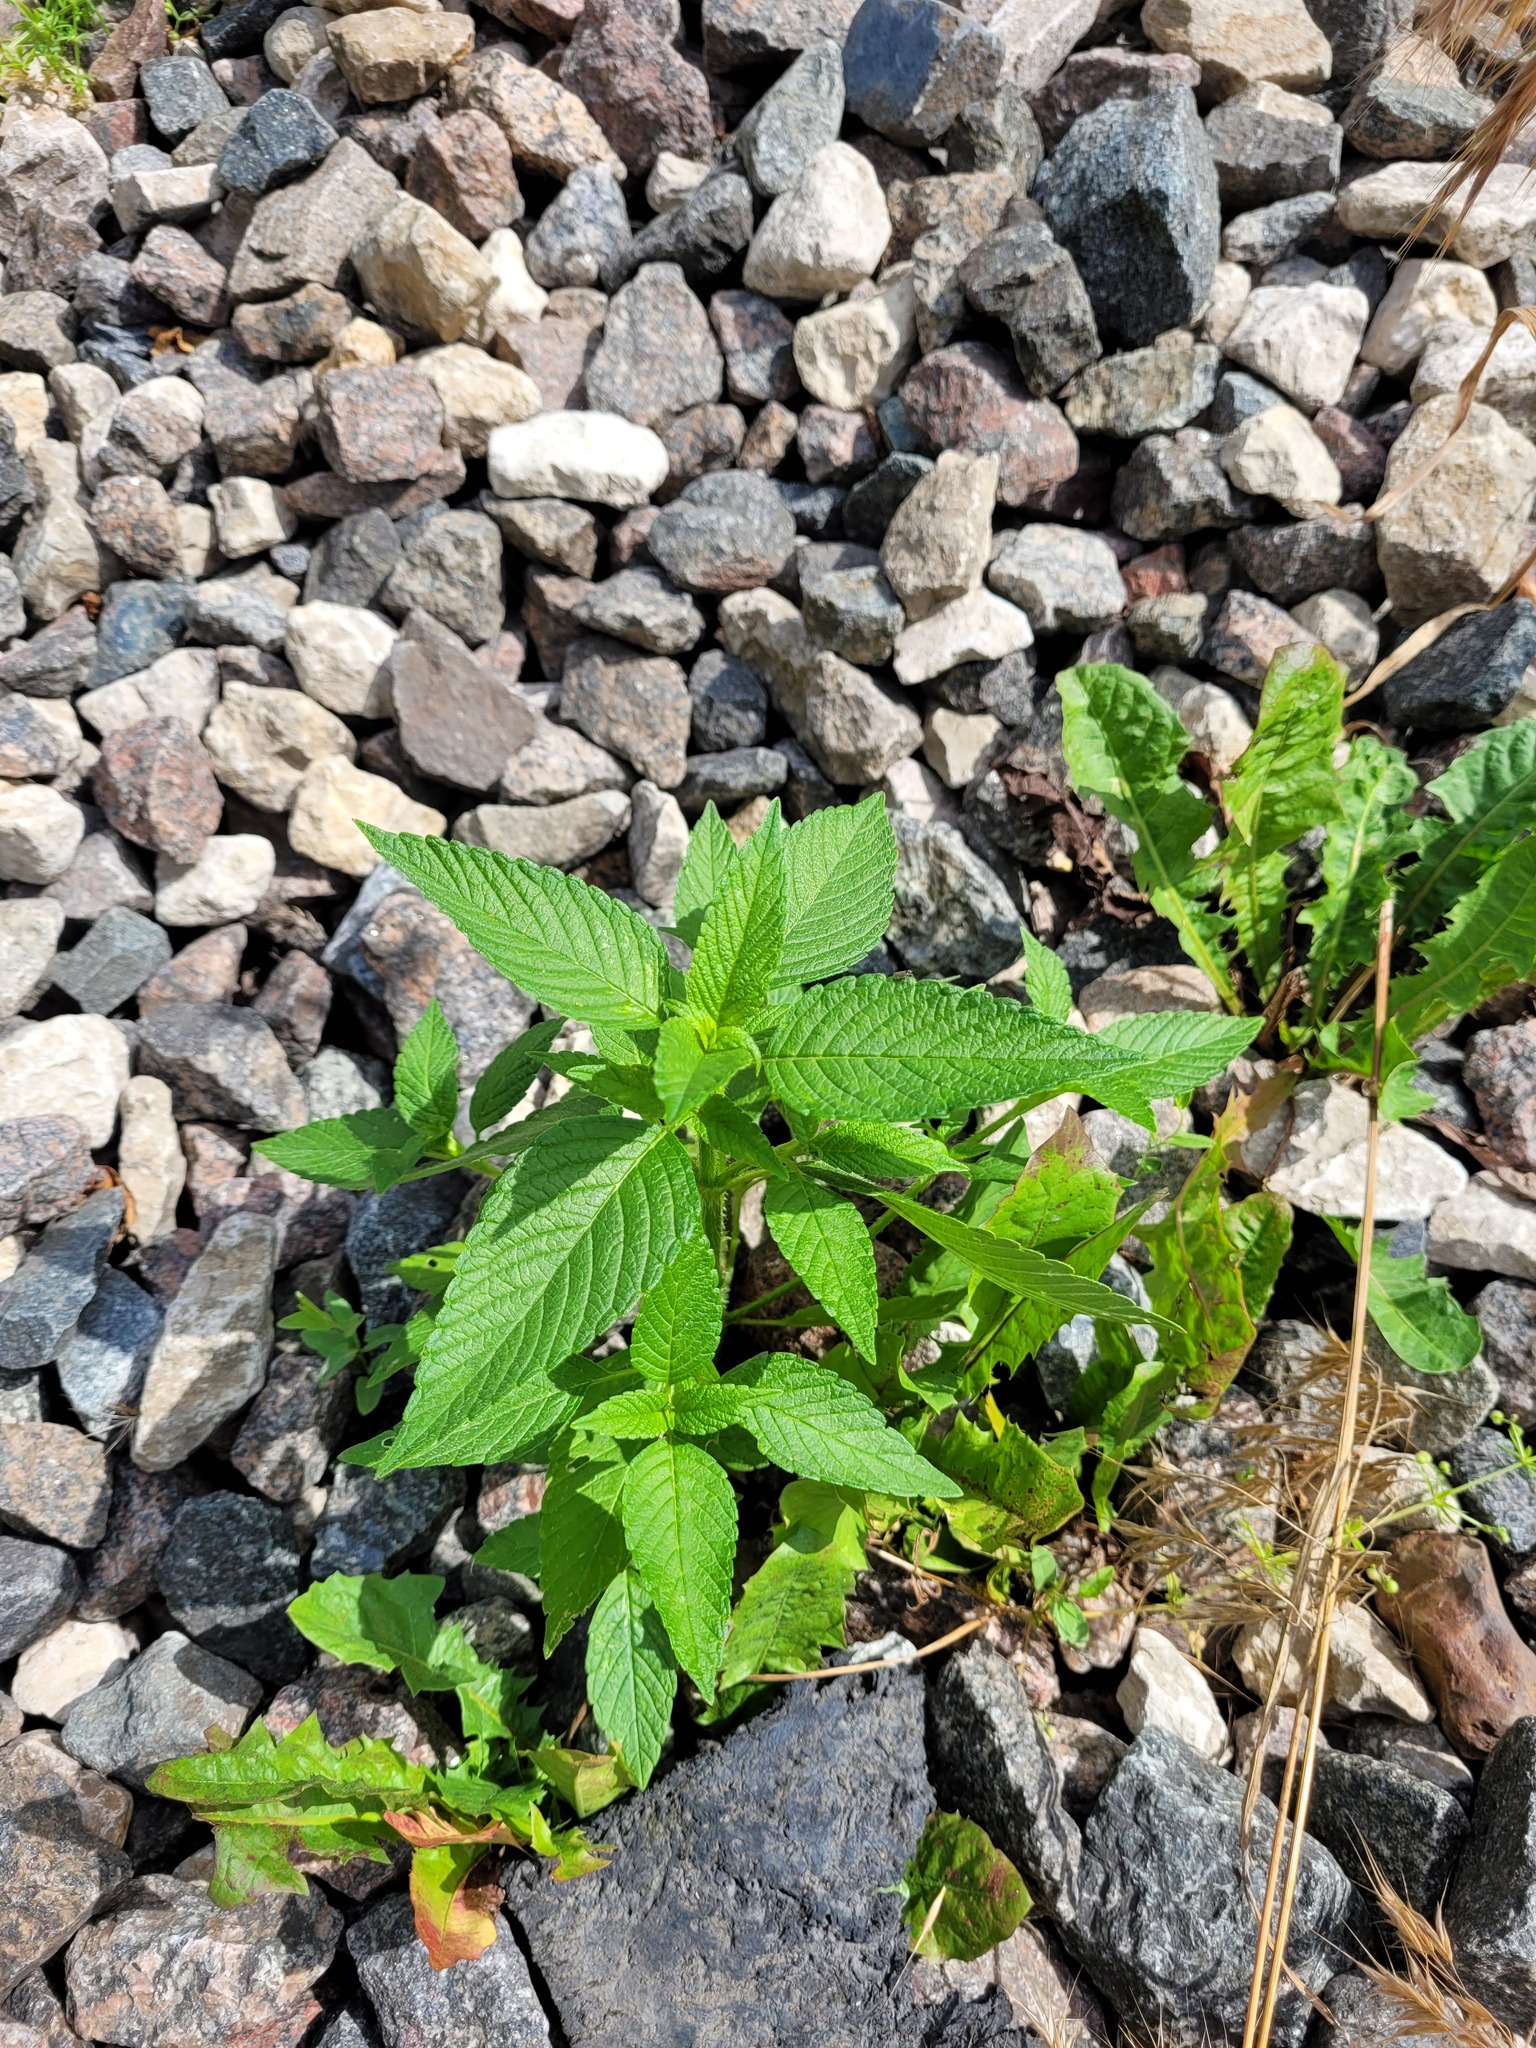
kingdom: Plantae
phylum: Tracheophyta
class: Magnoliopsida
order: Lamiales
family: Lamiaceae
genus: Galeopsis
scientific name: Galeopsis
